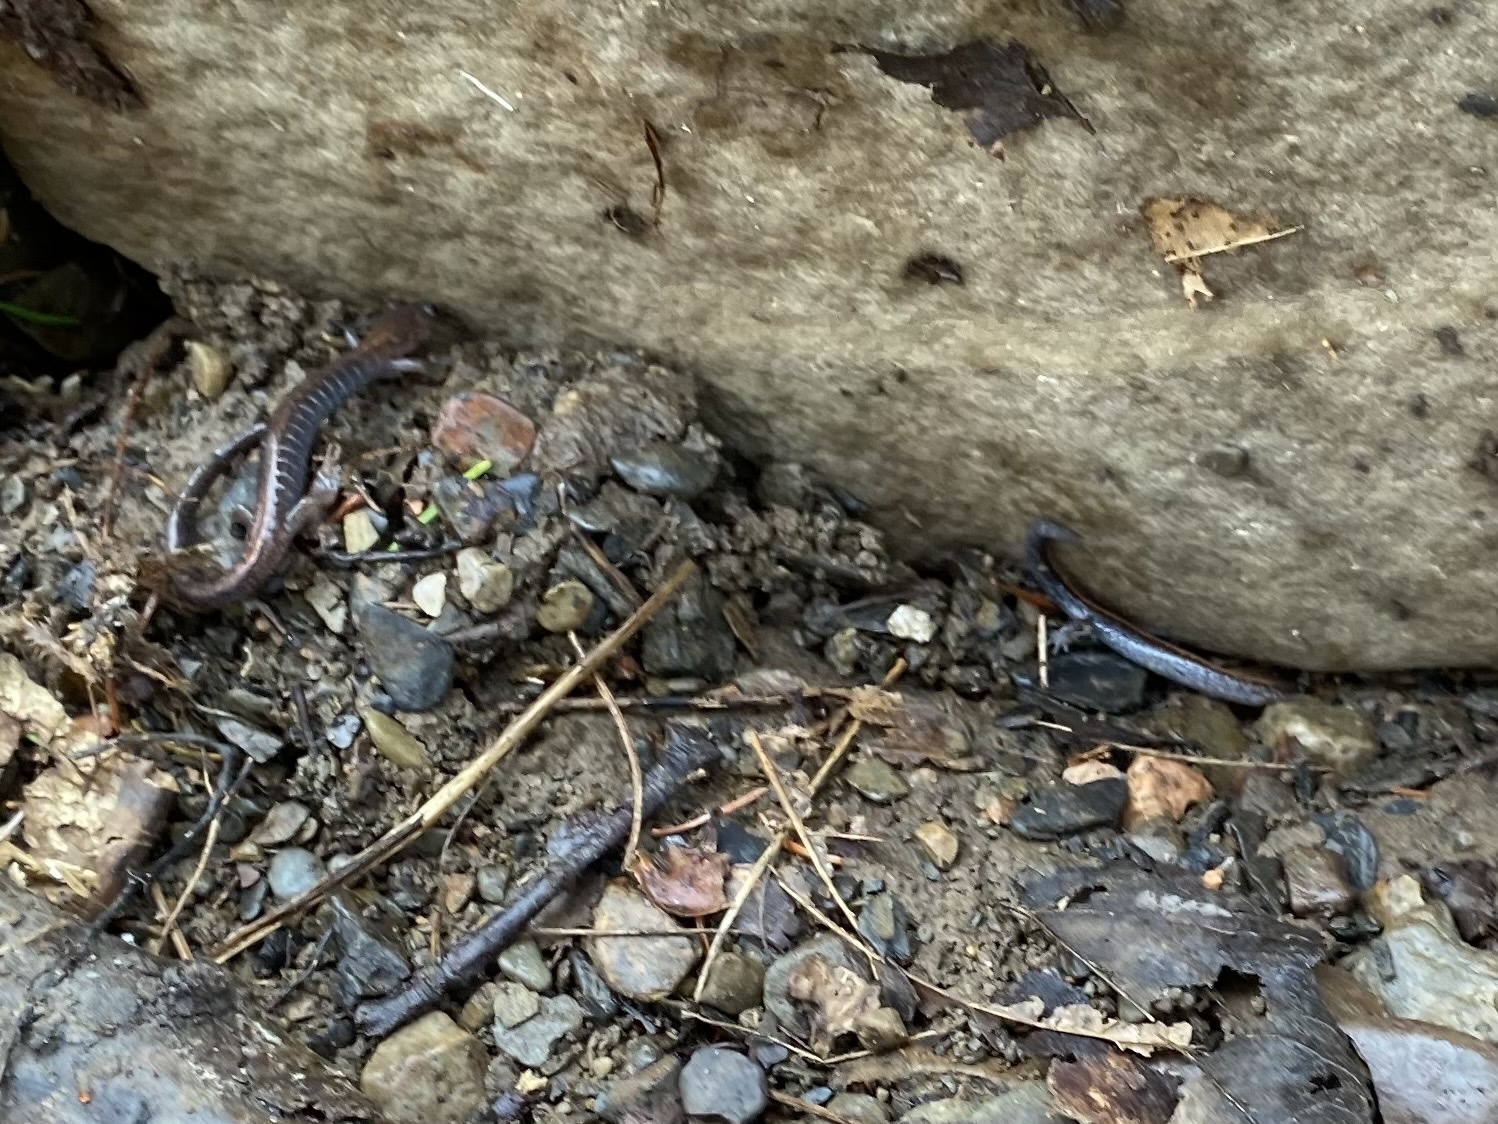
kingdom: Animalia
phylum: Chordata
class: Amphibia
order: Caudata
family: Plethodontidae
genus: Plethodon
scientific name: Plethodon cinereus
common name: Redback salamander
